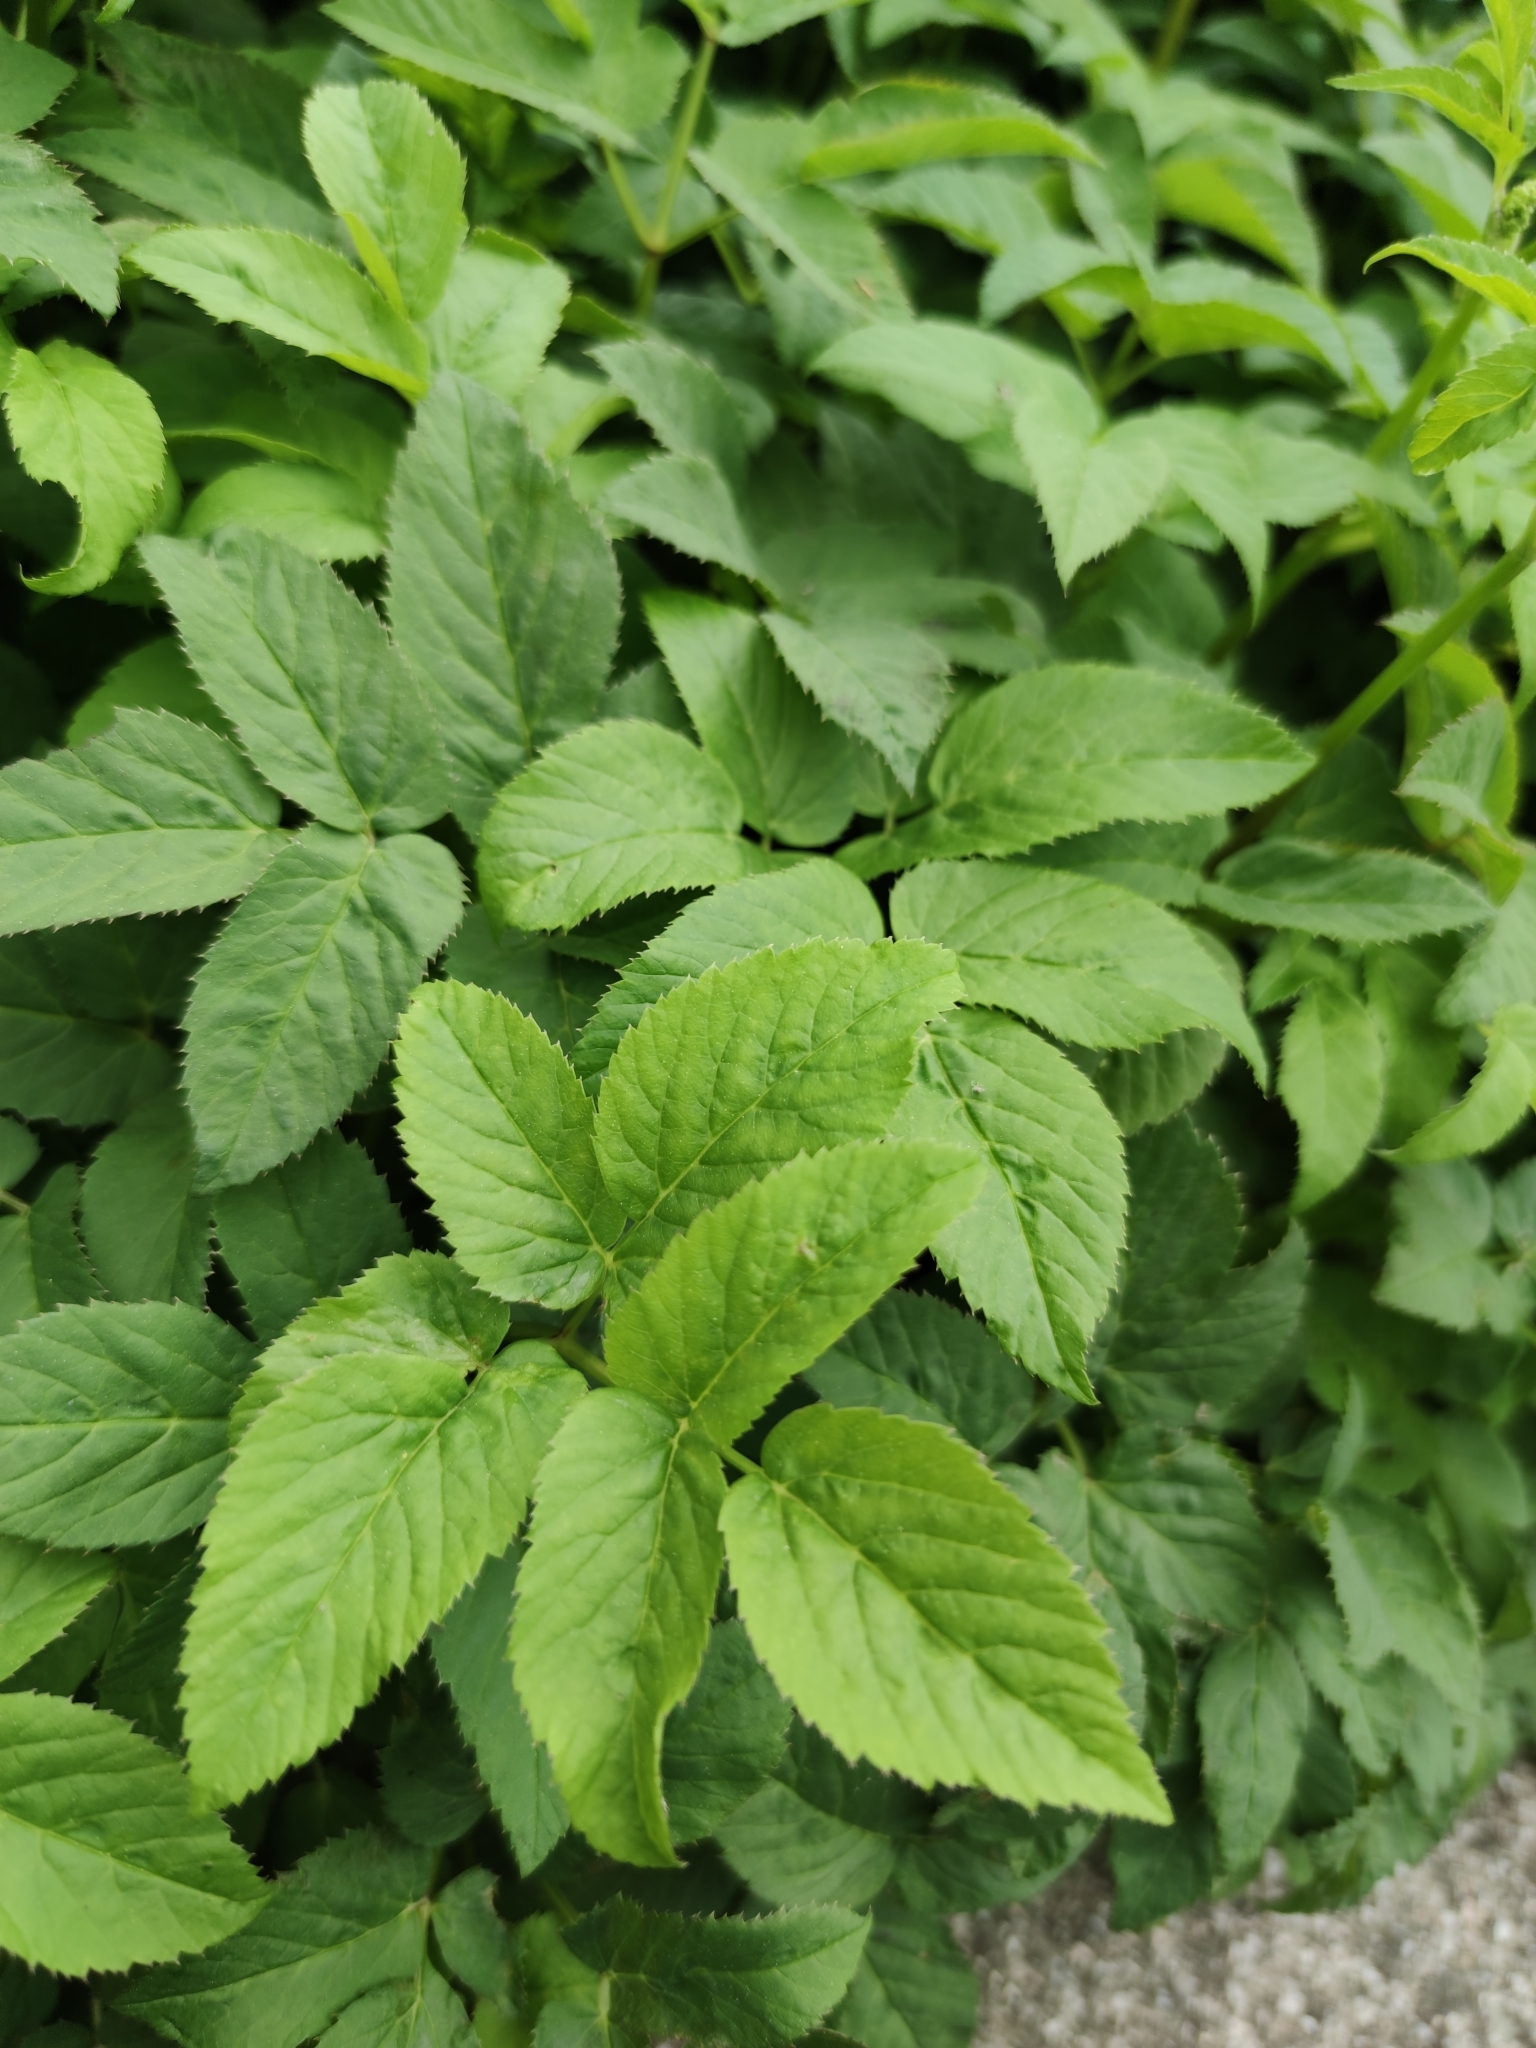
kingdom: Plantae
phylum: Tracheophyta
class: Magnoliopsida
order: Apiales
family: Apiaceae
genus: Aegopodium
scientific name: Aegopodium podagraria
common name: Ground-elder
